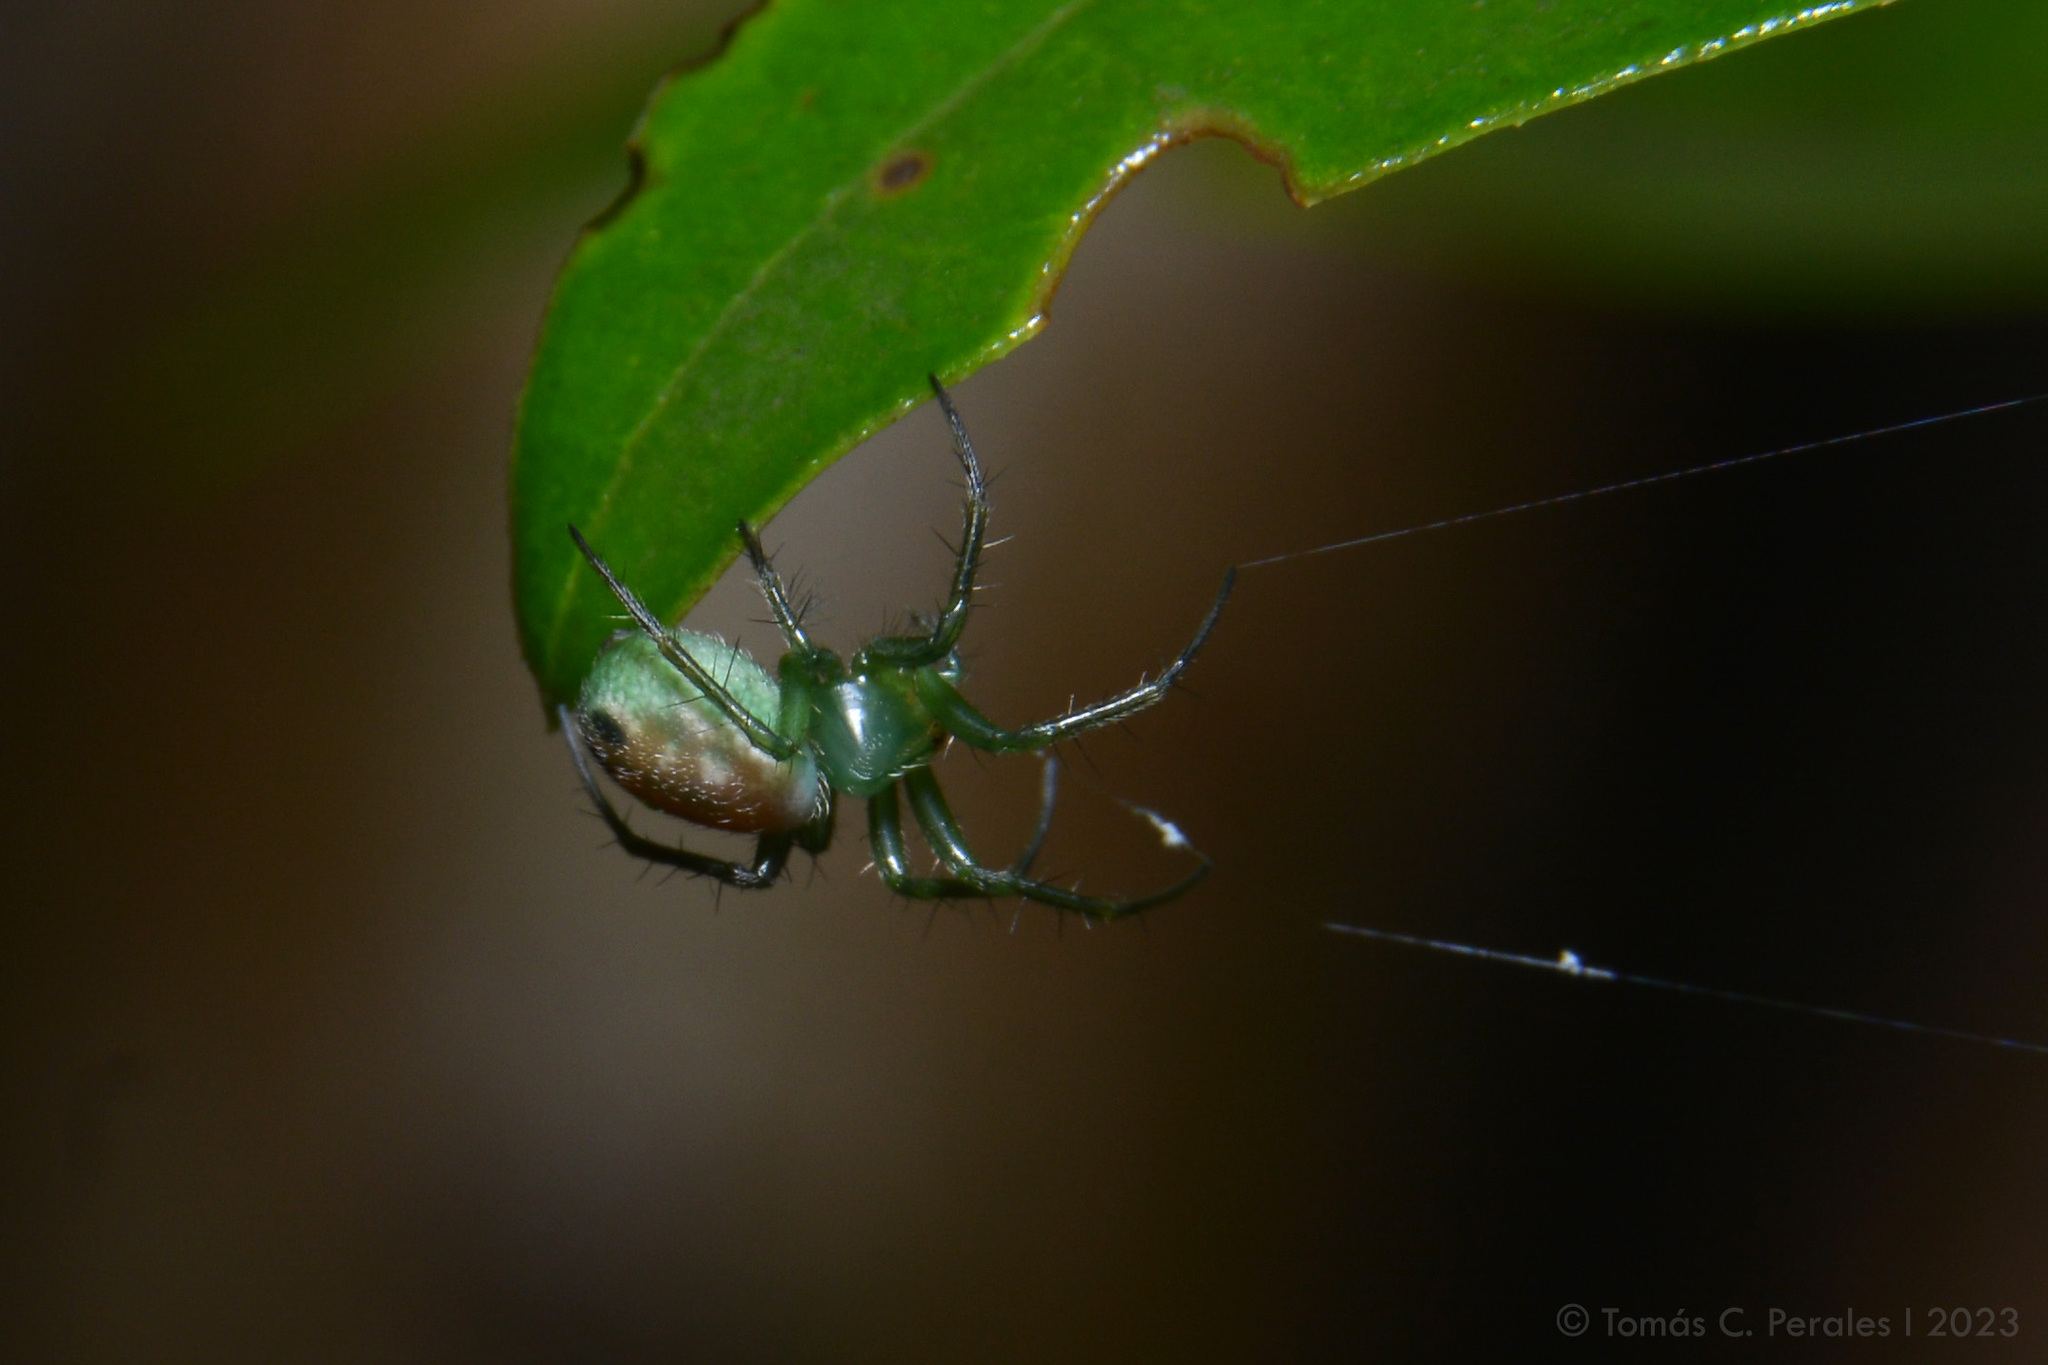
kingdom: Animalia
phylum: Arthropoda
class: Arachnida
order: Araneae
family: Araneidae
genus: Mangora
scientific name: Mangora lactea
